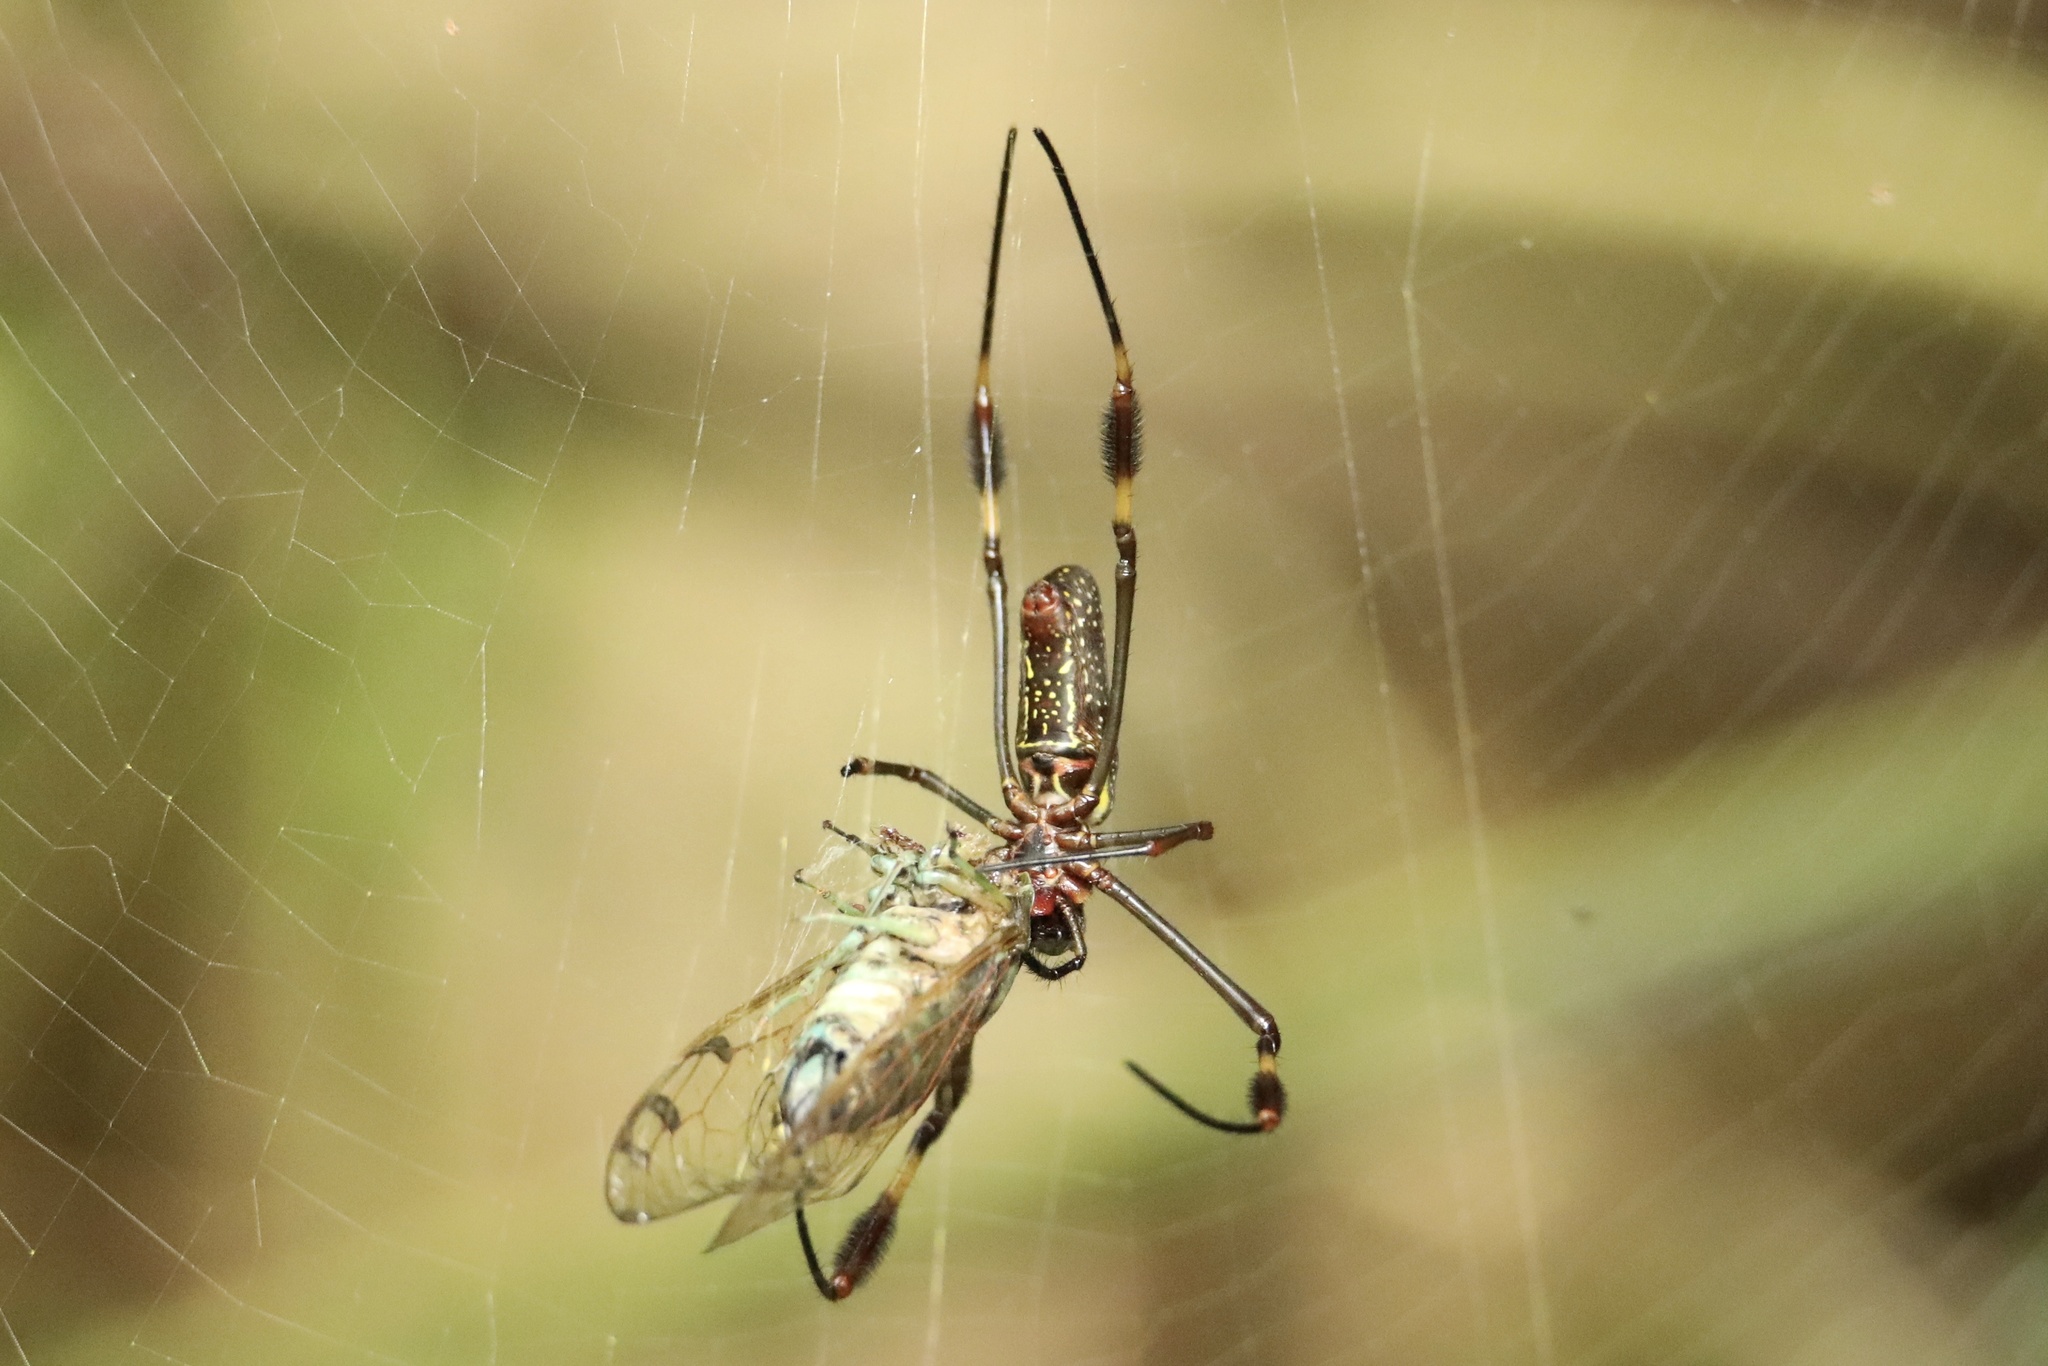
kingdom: Animalia
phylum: Arthropoda
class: Arachnida
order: Araneae
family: Araneidae
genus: Trichonephila
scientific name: Trichonephila clavipes
